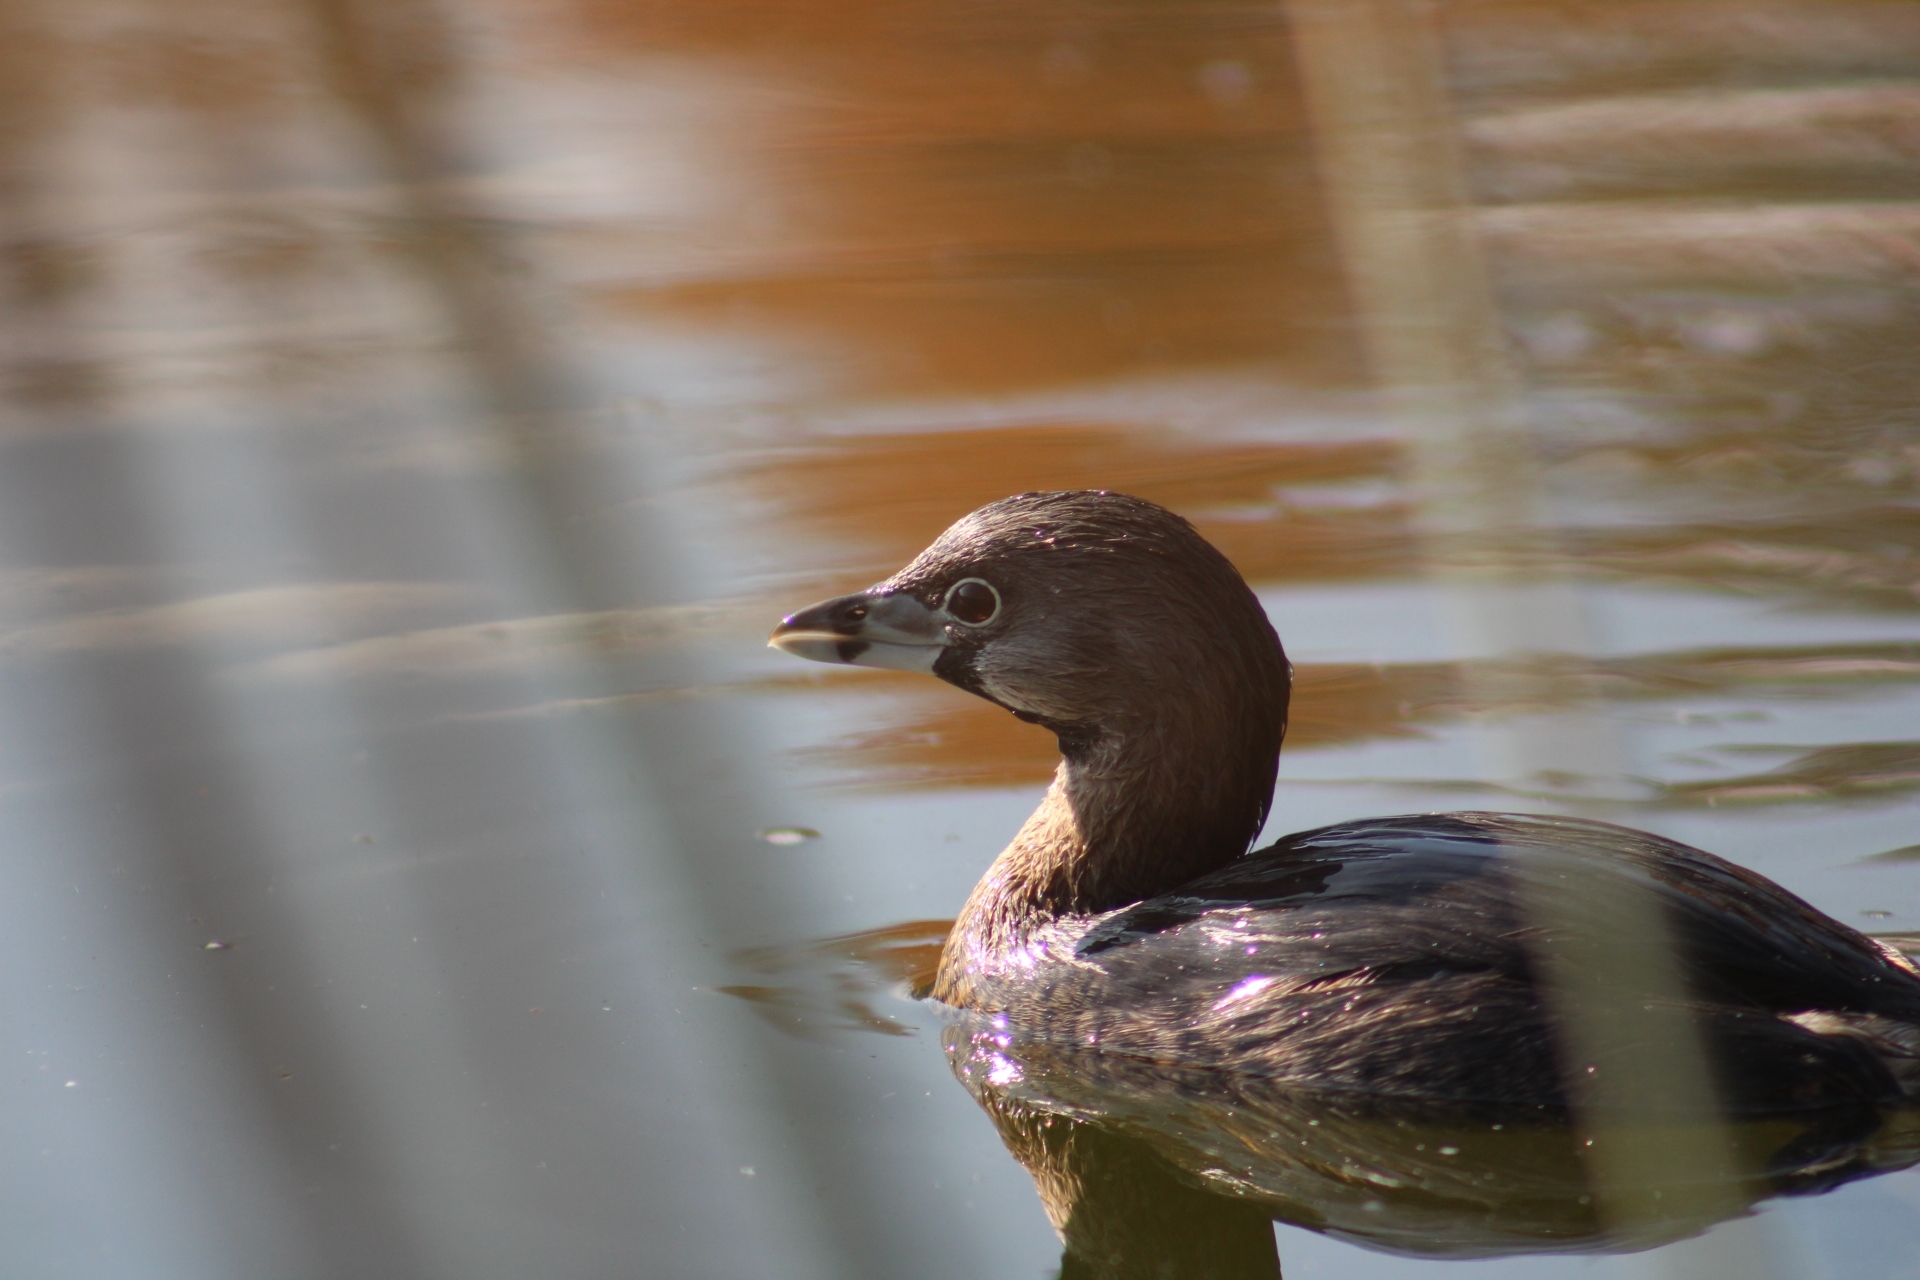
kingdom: Animalia
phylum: Chordata
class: Aves
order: Podicipediformes
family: Podicipedidae
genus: Podilymbus
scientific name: Podilymbus podiceps
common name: Pied-billed grebe
